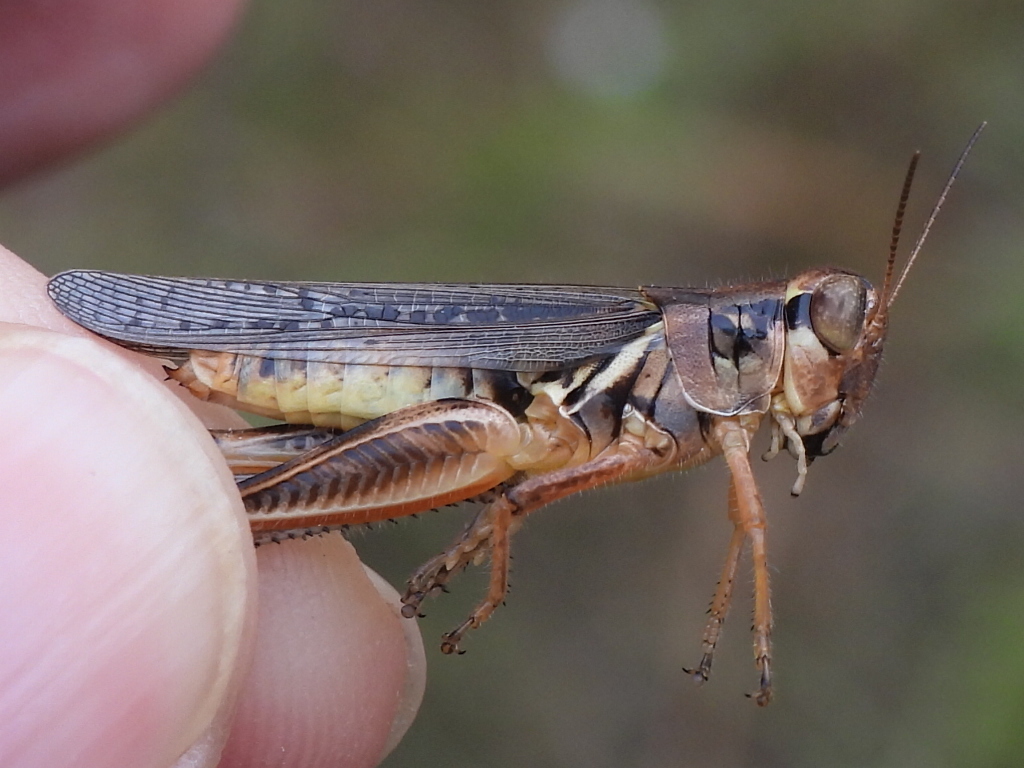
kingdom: Animalia
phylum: Arthropoda
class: Insecta
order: Orthoptera
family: Acrididae
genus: Melanoplus
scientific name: Melanoplus femurrubrum
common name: Red-legged grasshopper
